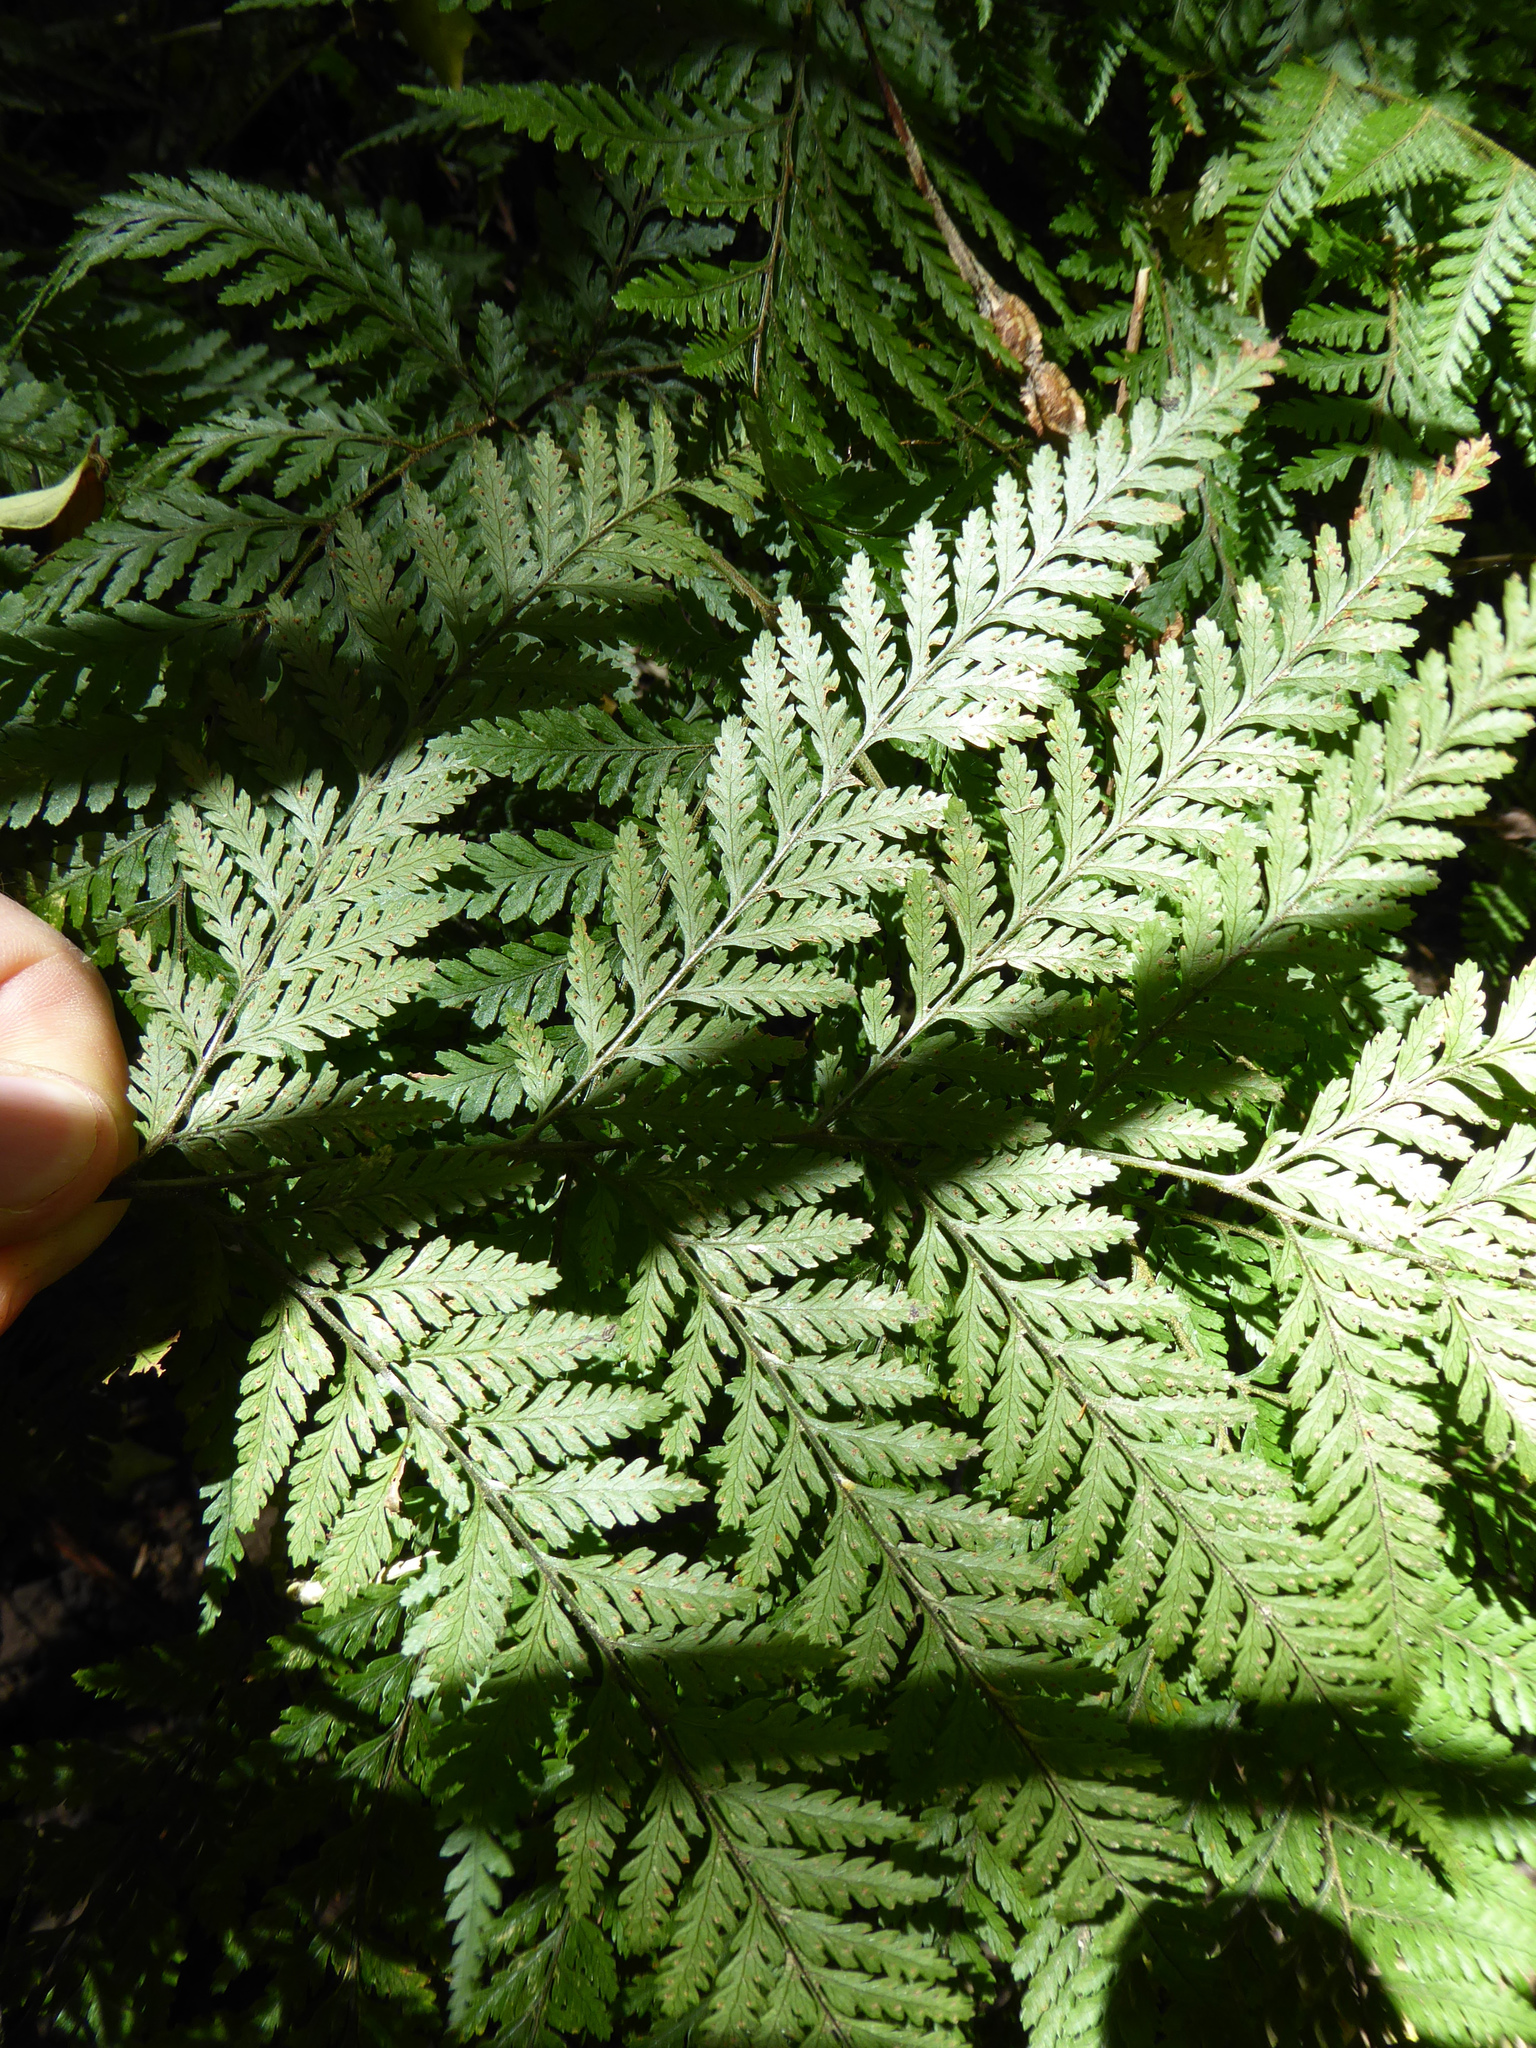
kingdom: Plantae
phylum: Tracheophyta
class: Polypodiopsida
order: Polypodiales
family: Dryopteridaceae
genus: Parapolystichum
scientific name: Parapolystichum microsorum
